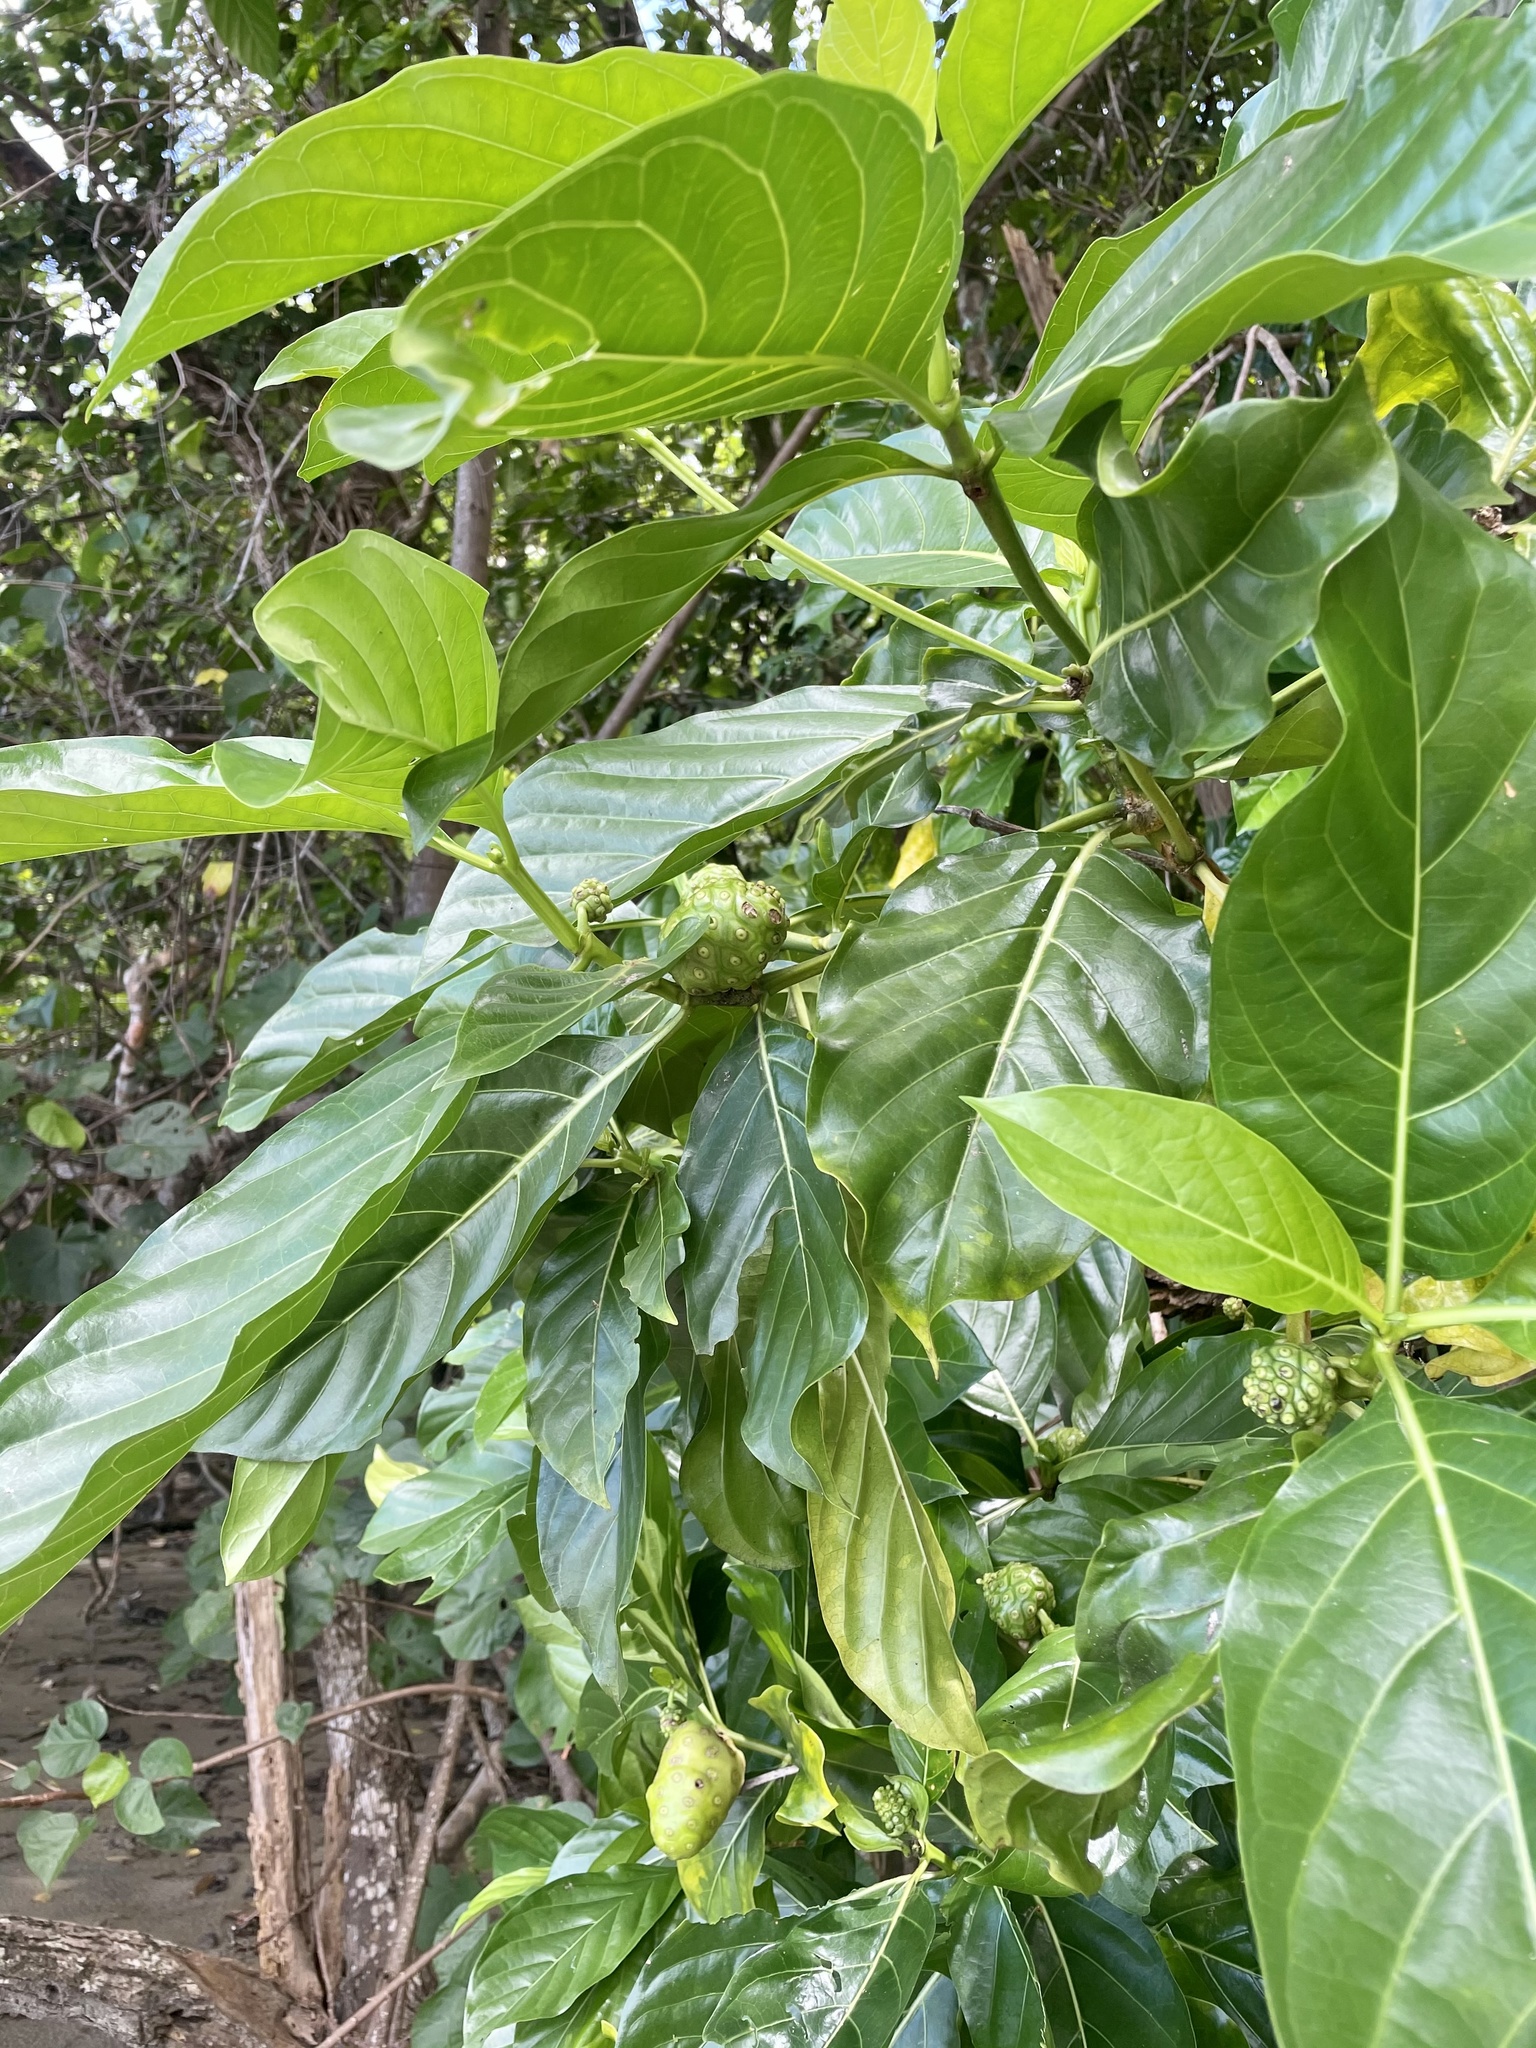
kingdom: Plantae
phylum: Tracheophyta
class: Magnoliopsida
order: Gentianales
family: Rubiaceae
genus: Morinda
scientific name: Morinda citrifolia
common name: Indian-mulberry
